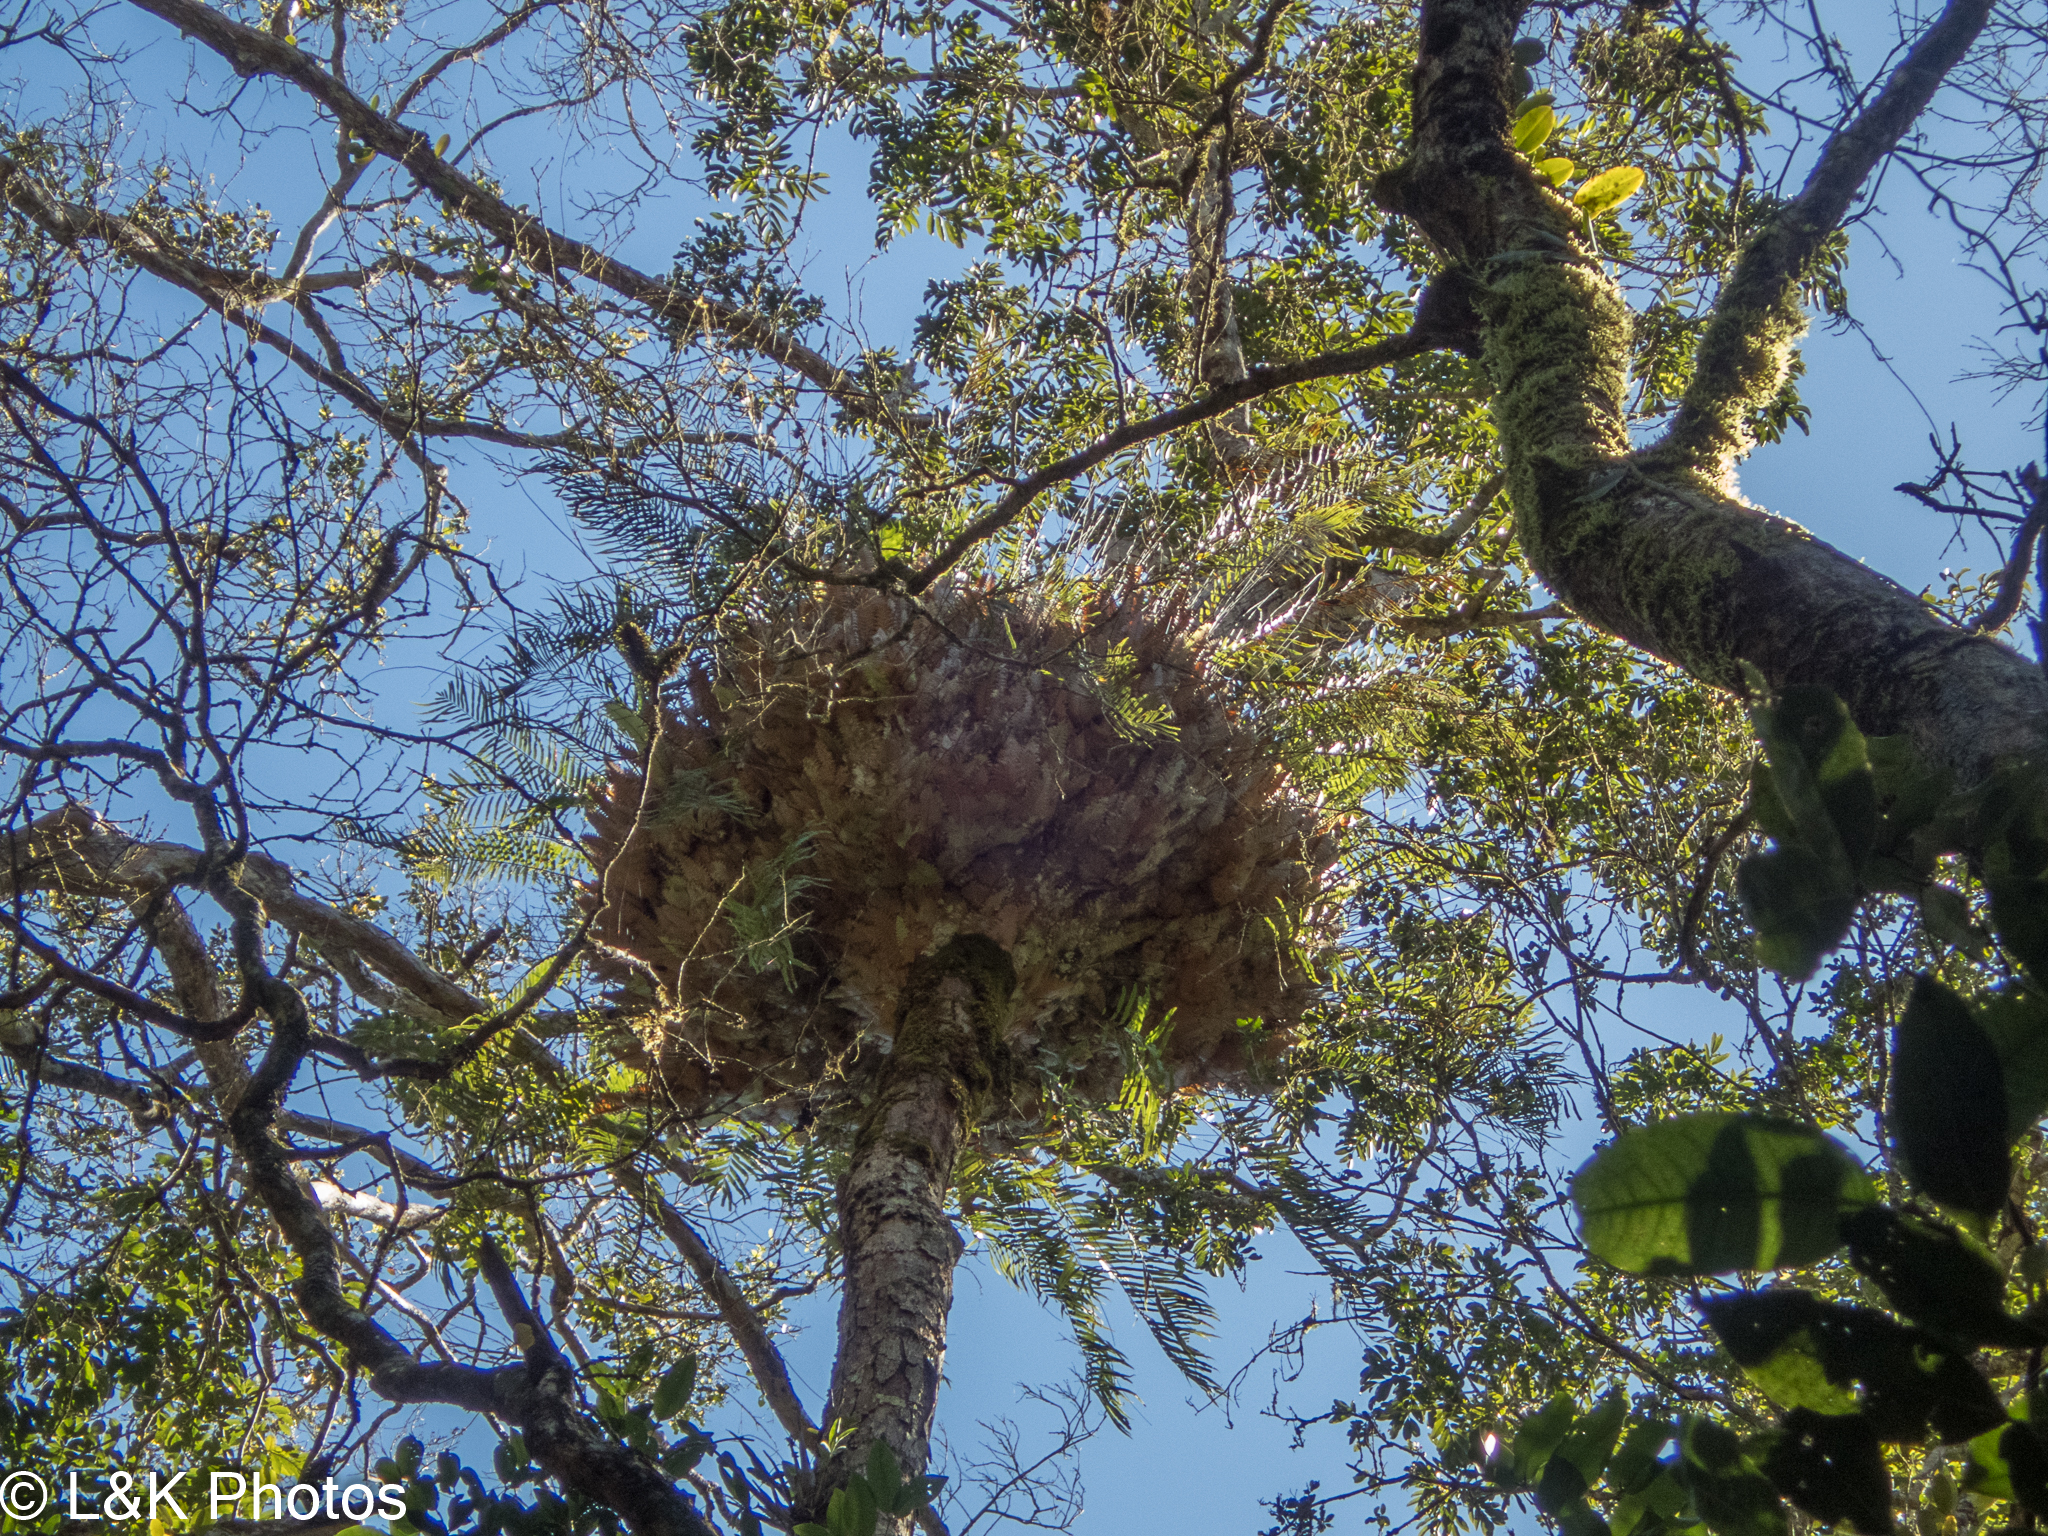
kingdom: Plantae
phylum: Tracheophyta
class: Polypodiopsida
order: Polypodiales
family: Polypodiaceae
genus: Drynaria
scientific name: Drynaria rigidula
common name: Basket fern
